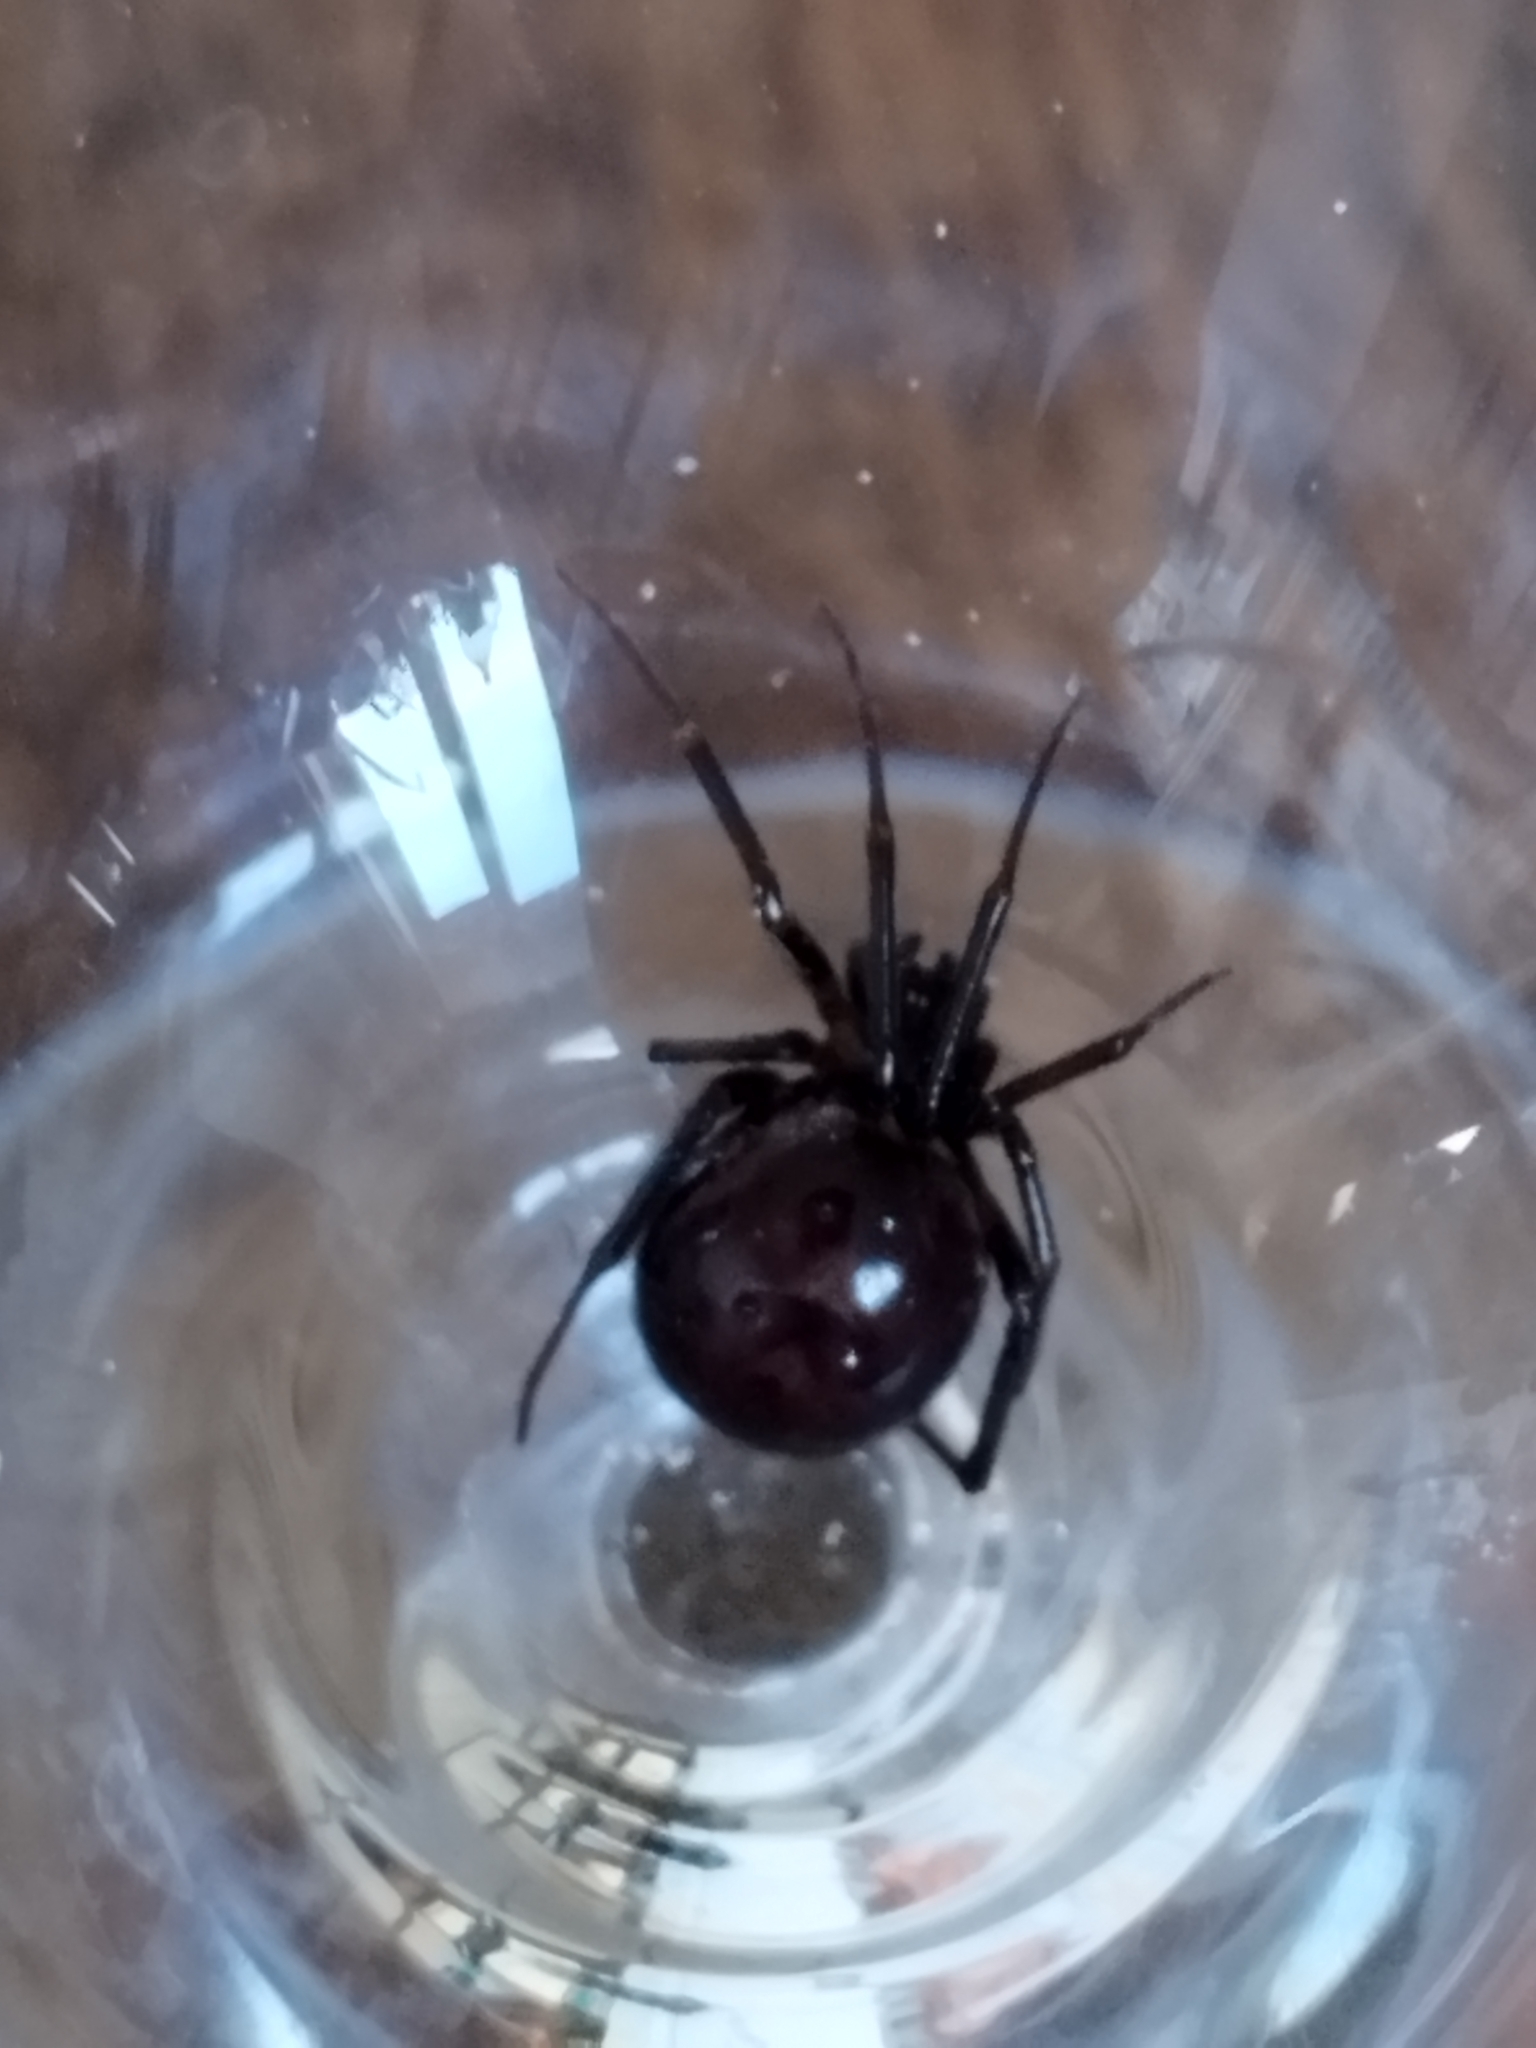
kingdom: Animalia
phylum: Arthropoda
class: Arachnida
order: Araneae
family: Theridiidae
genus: Steatoda
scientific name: Steatoda grossa
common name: False black widow
